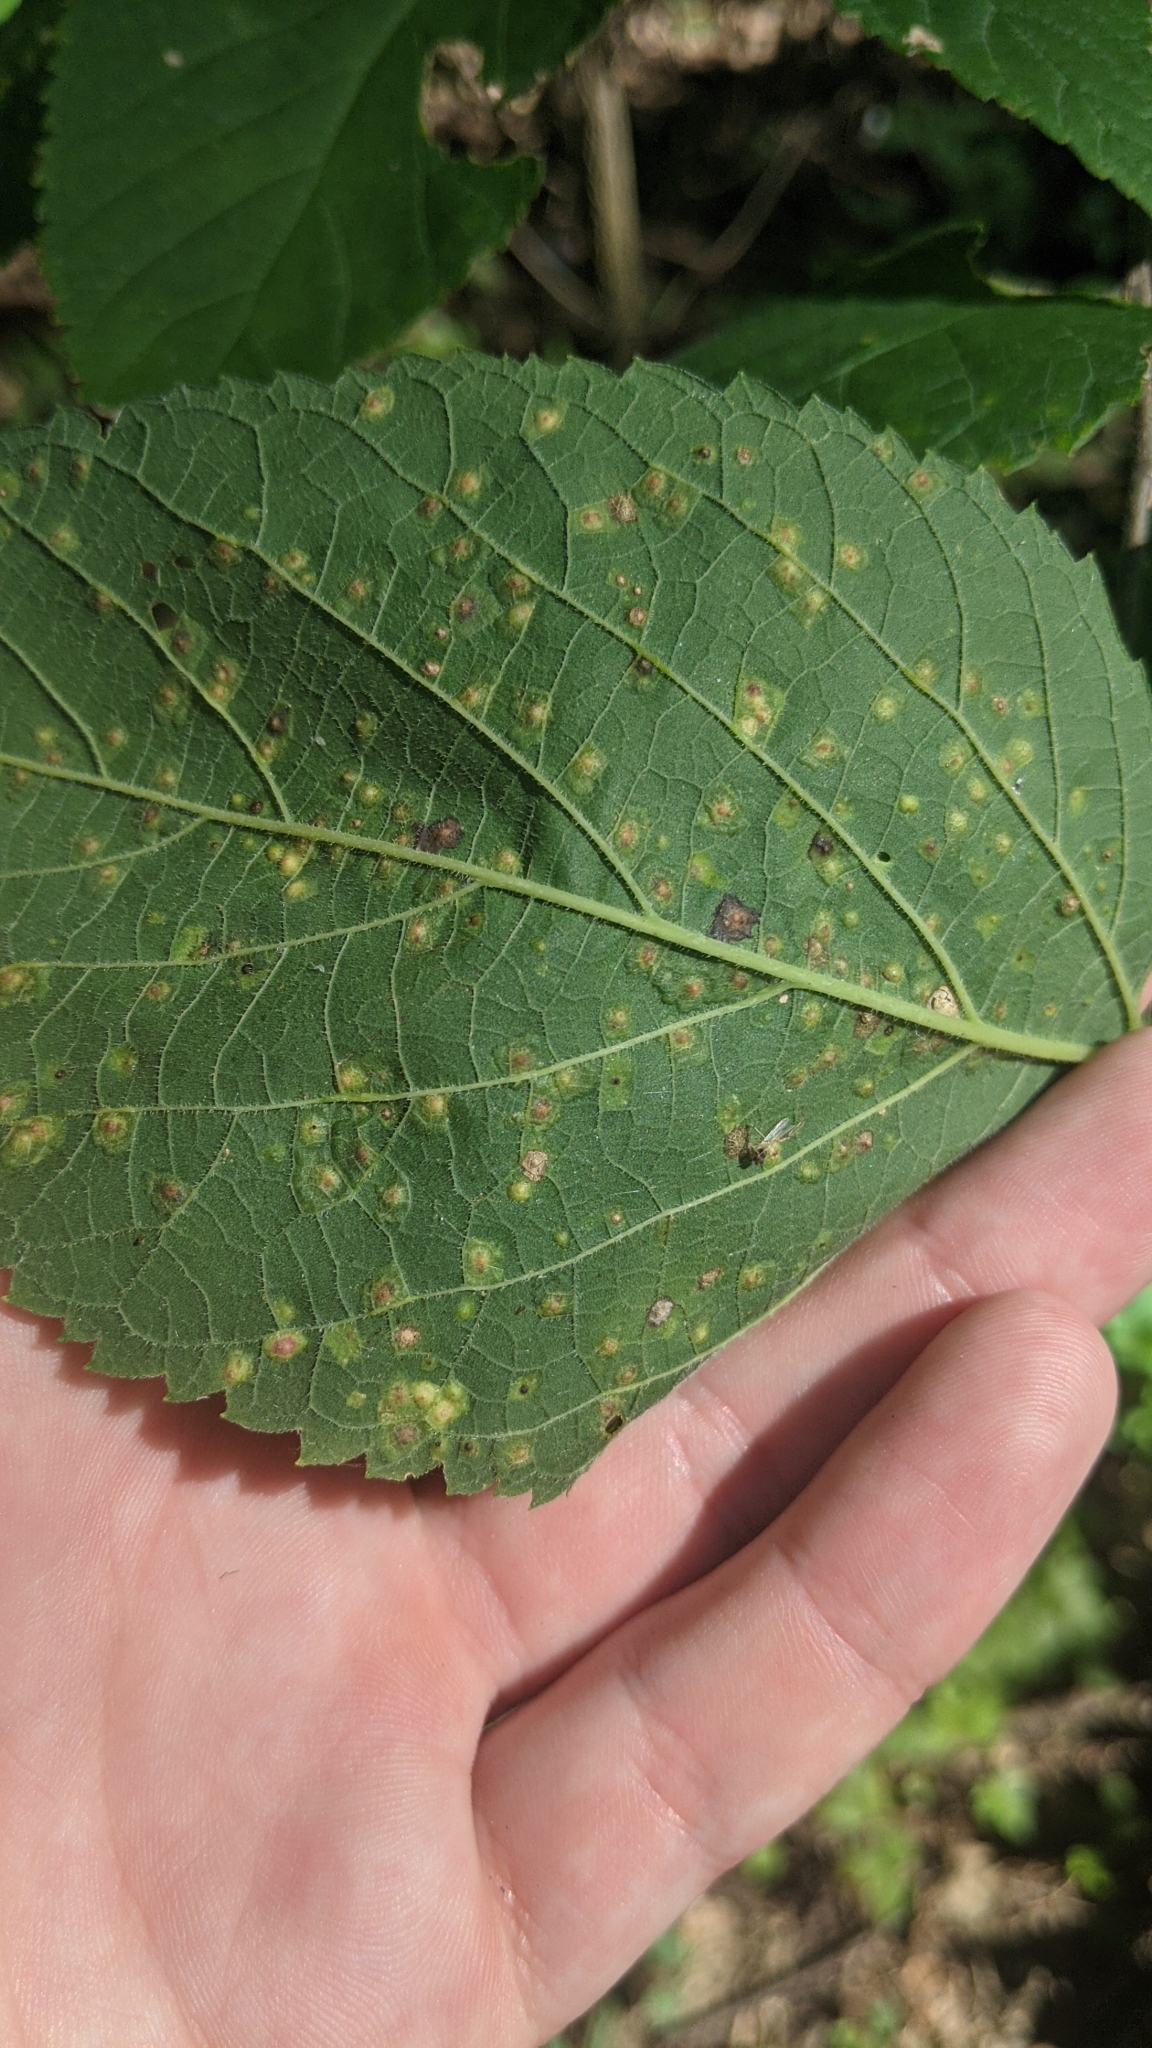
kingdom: Animalia
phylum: Arthropoda
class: Insecta
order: Hemiptera
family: Aphalaridae
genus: Pachypsylla
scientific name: Pachypsylla celtidisvesicula
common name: Hackberry blister gall psyllid
